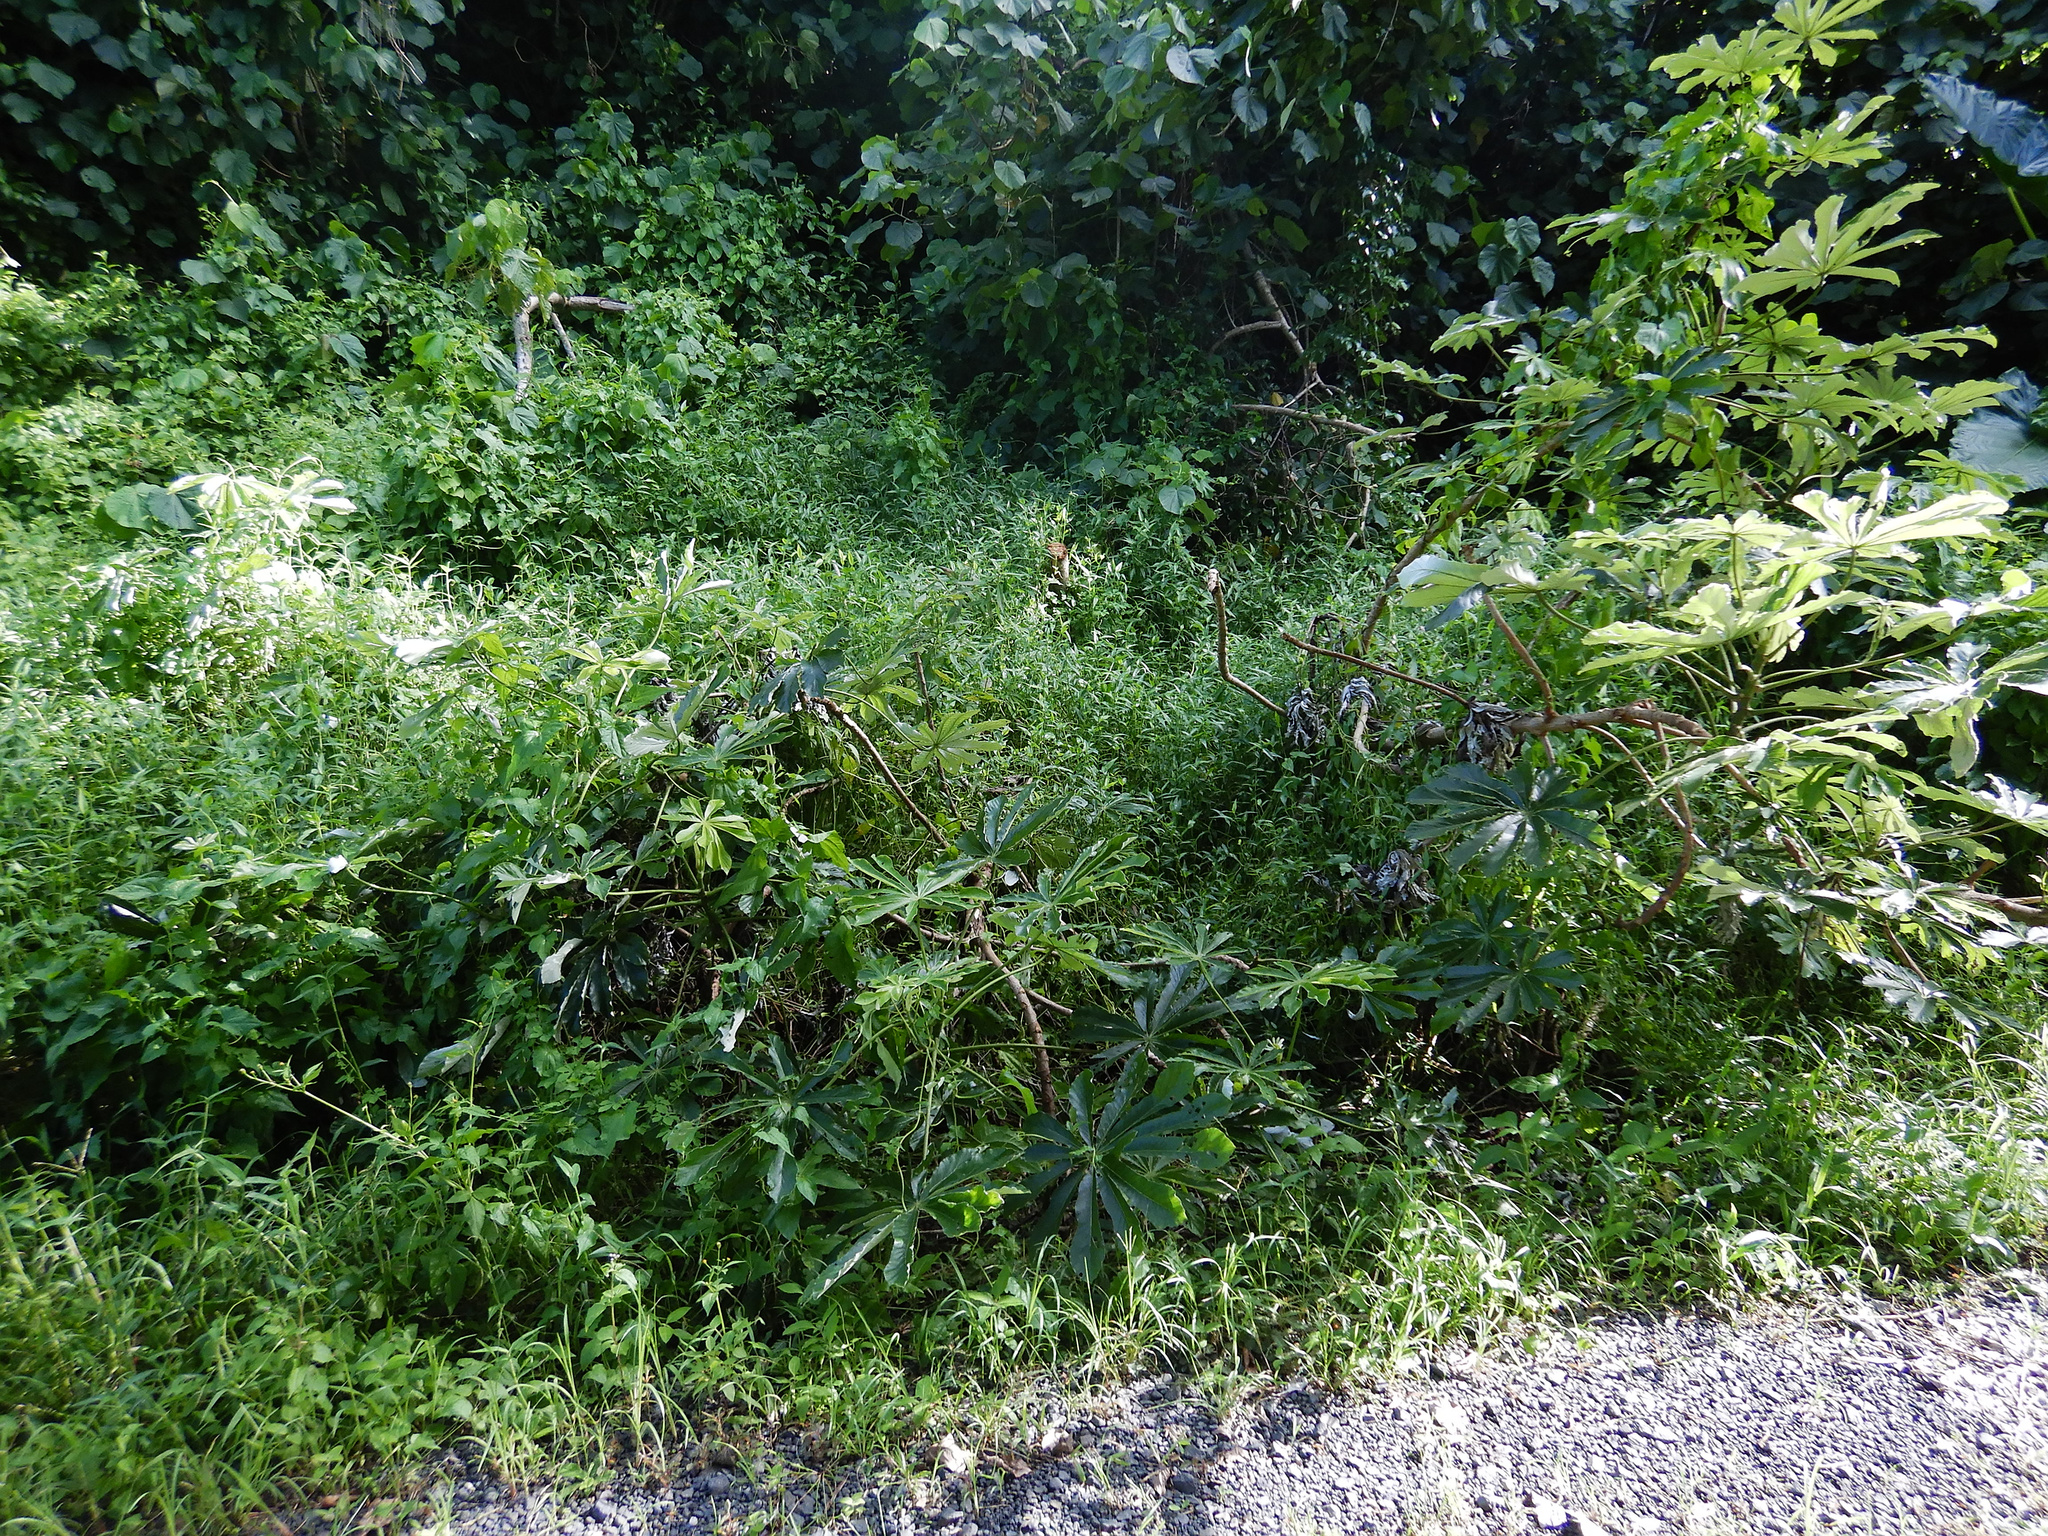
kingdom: Plantae
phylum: Tracheophyta
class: Magnoliopsida
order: Rosales
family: Urticaceae
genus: Cecropia
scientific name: Cecropia pachystachya
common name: Ambay pumpwood
